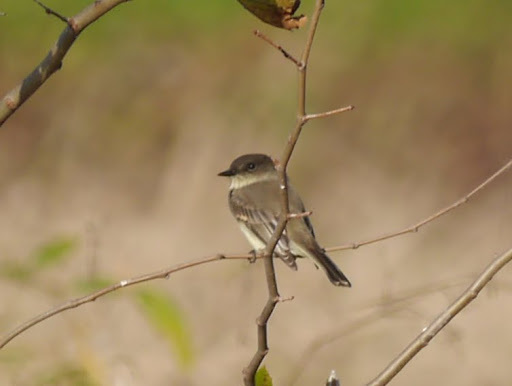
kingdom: Animalia
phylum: Chordata
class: Aves
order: Passeriformes
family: Tyrannidae
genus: Sayornis
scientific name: Sayornis phoebe
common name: Eastern phoebe
